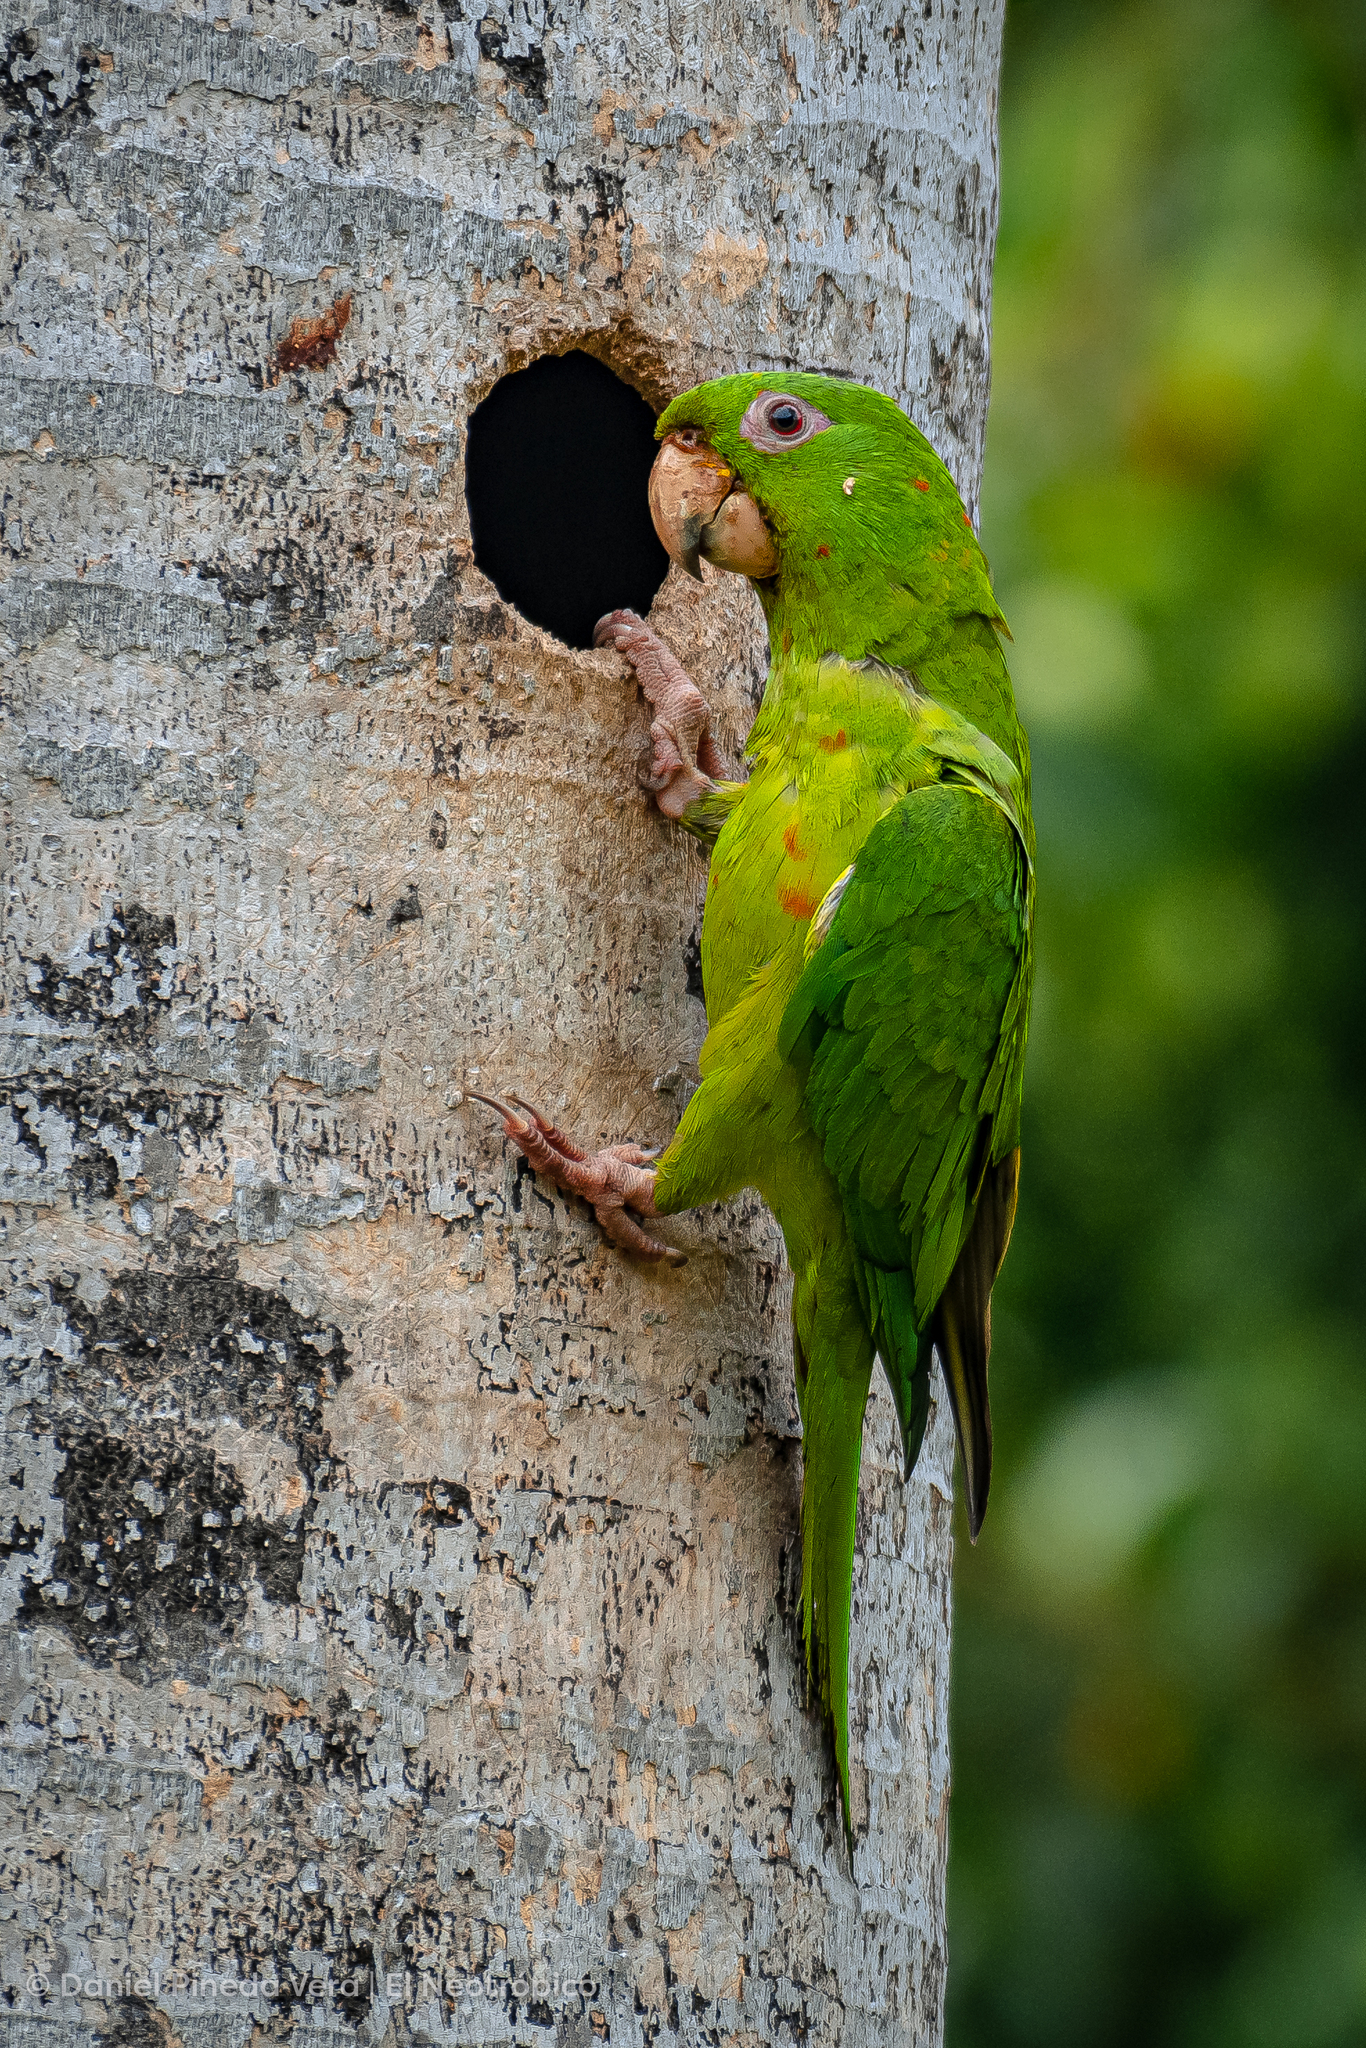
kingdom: Animalia
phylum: Chordata
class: Aves
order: Psittaciformes
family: Psittacidae
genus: Aratinga
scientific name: Aratinga holochlora
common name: Green parakeet
